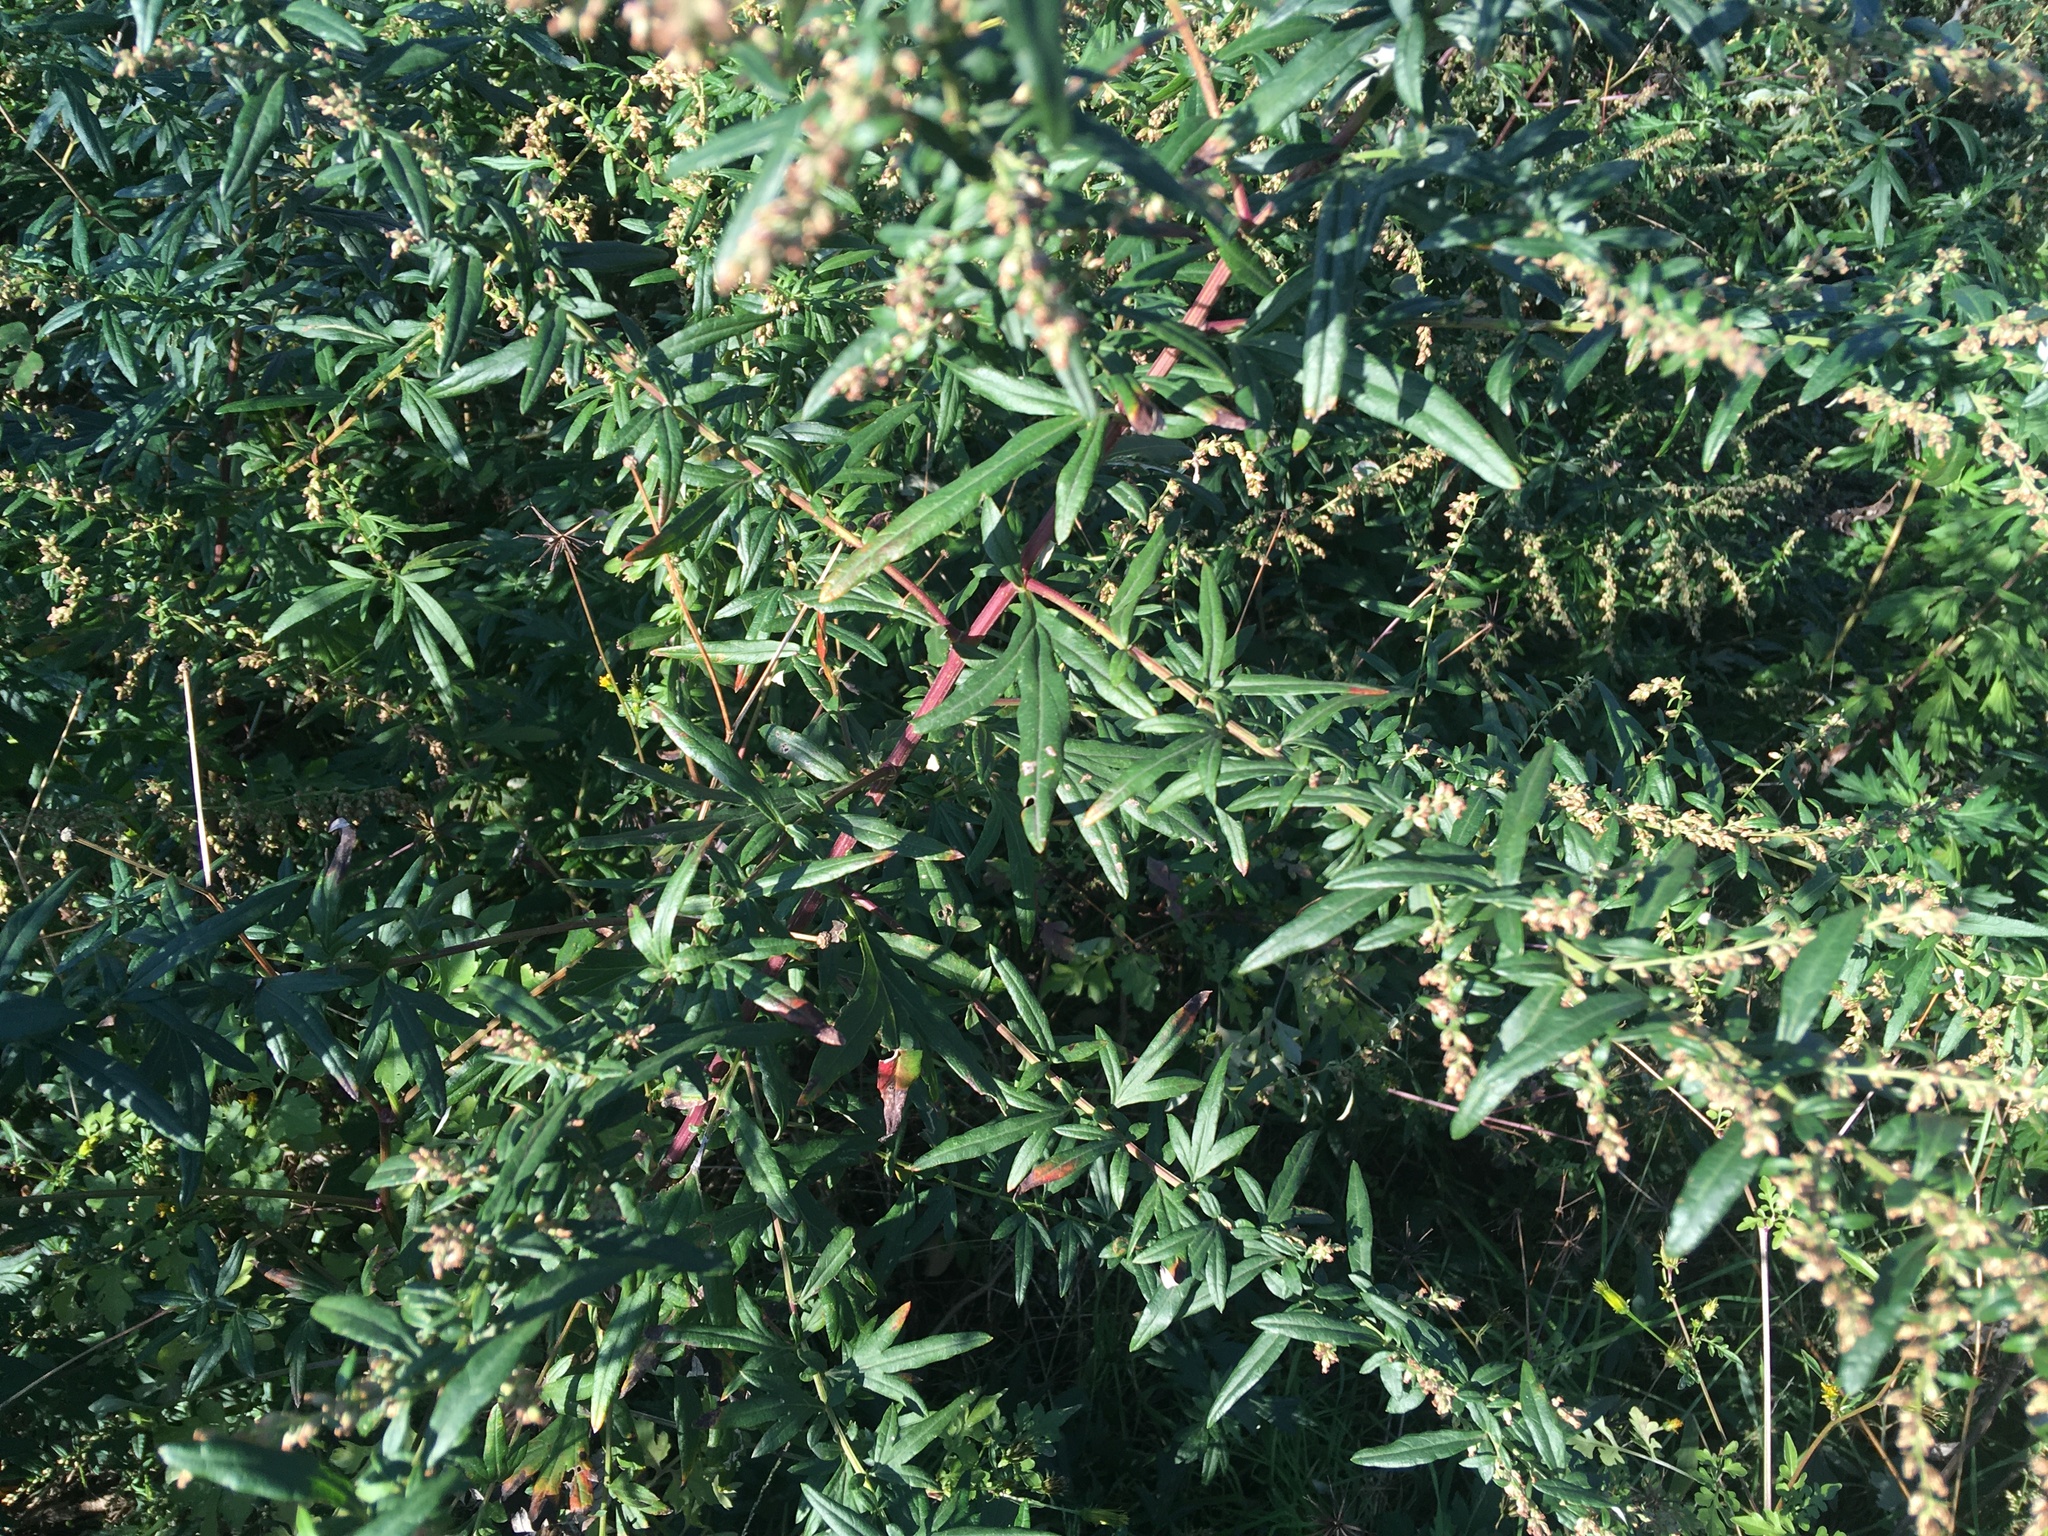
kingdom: Plantae
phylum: Tracheophyta
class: Magnoliopsida
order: Asterales
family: Asteraceae
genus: Artemisia
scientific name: Artemisia vulgaris
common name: Mugwort
